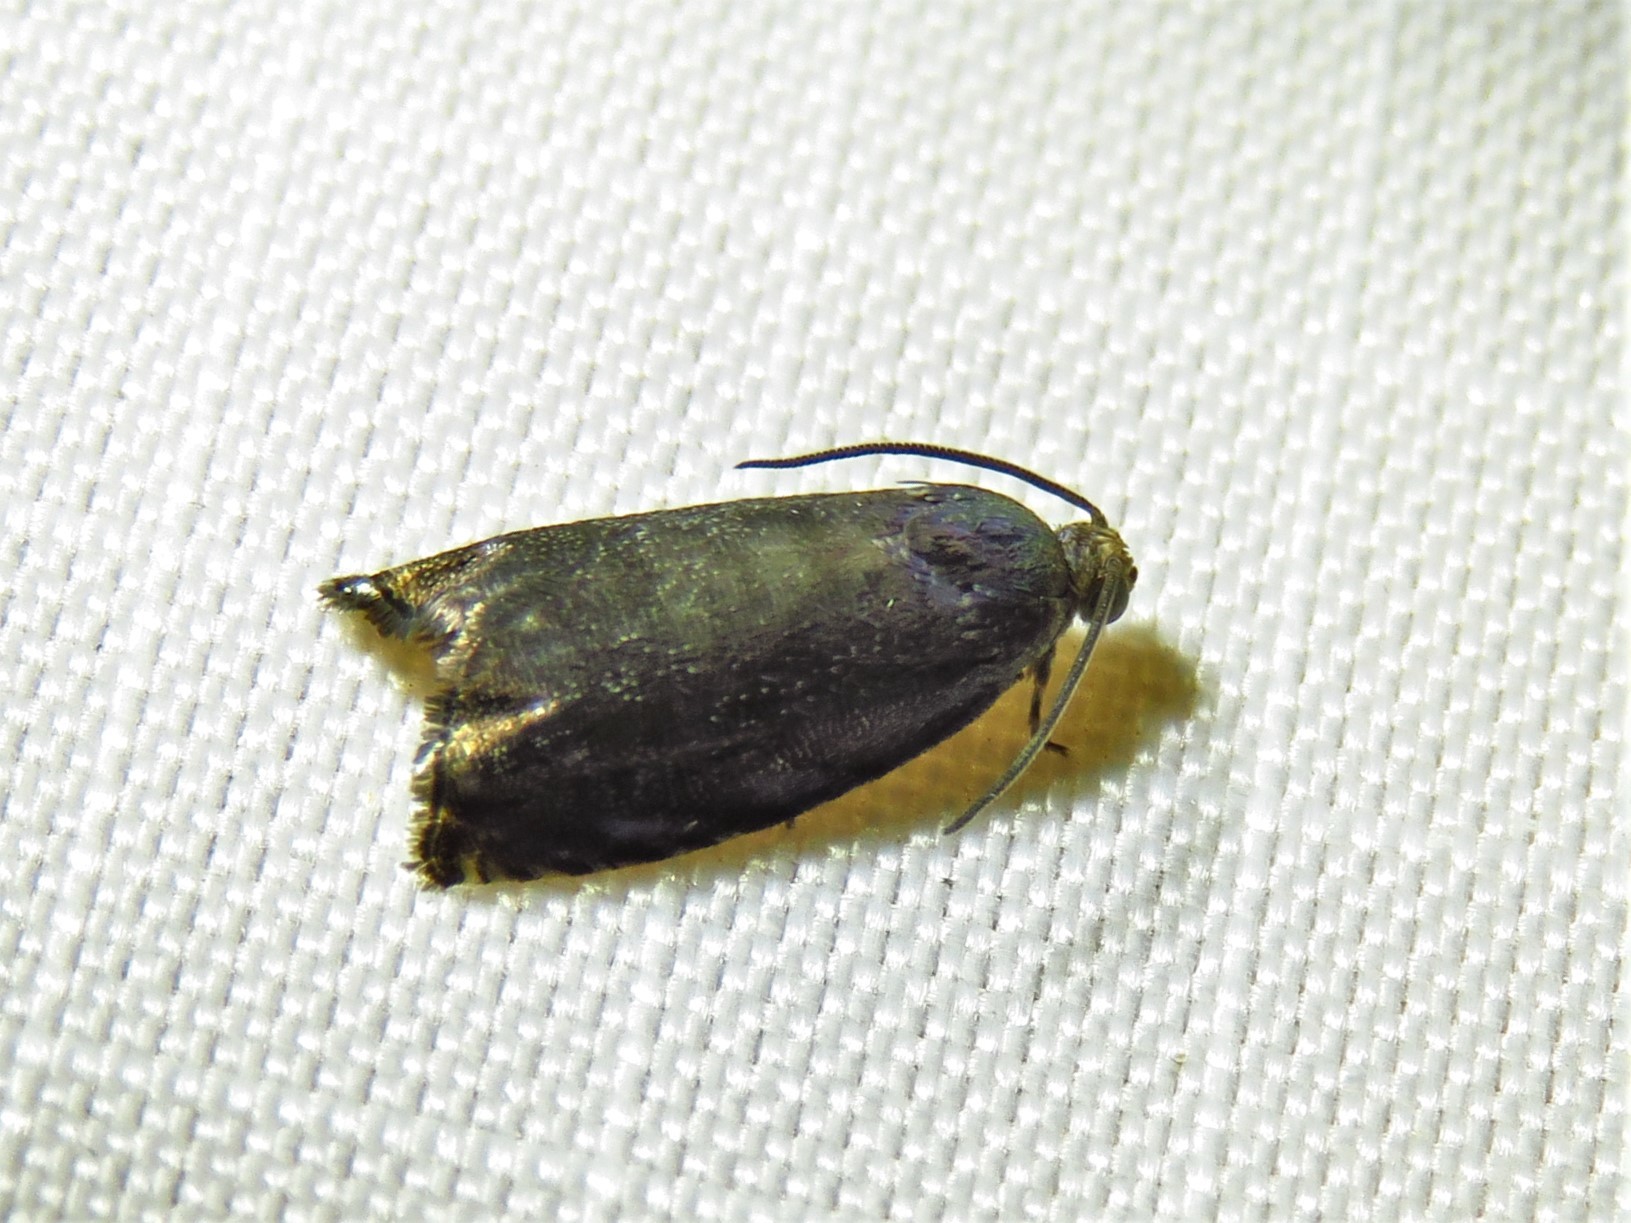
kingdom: Animalia
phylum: Arthropoda
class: Insecta
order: Lepidoptera
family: Tortricidae
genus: Cydia
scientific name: Cydia caryana
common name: Hickory shuckworm moth
